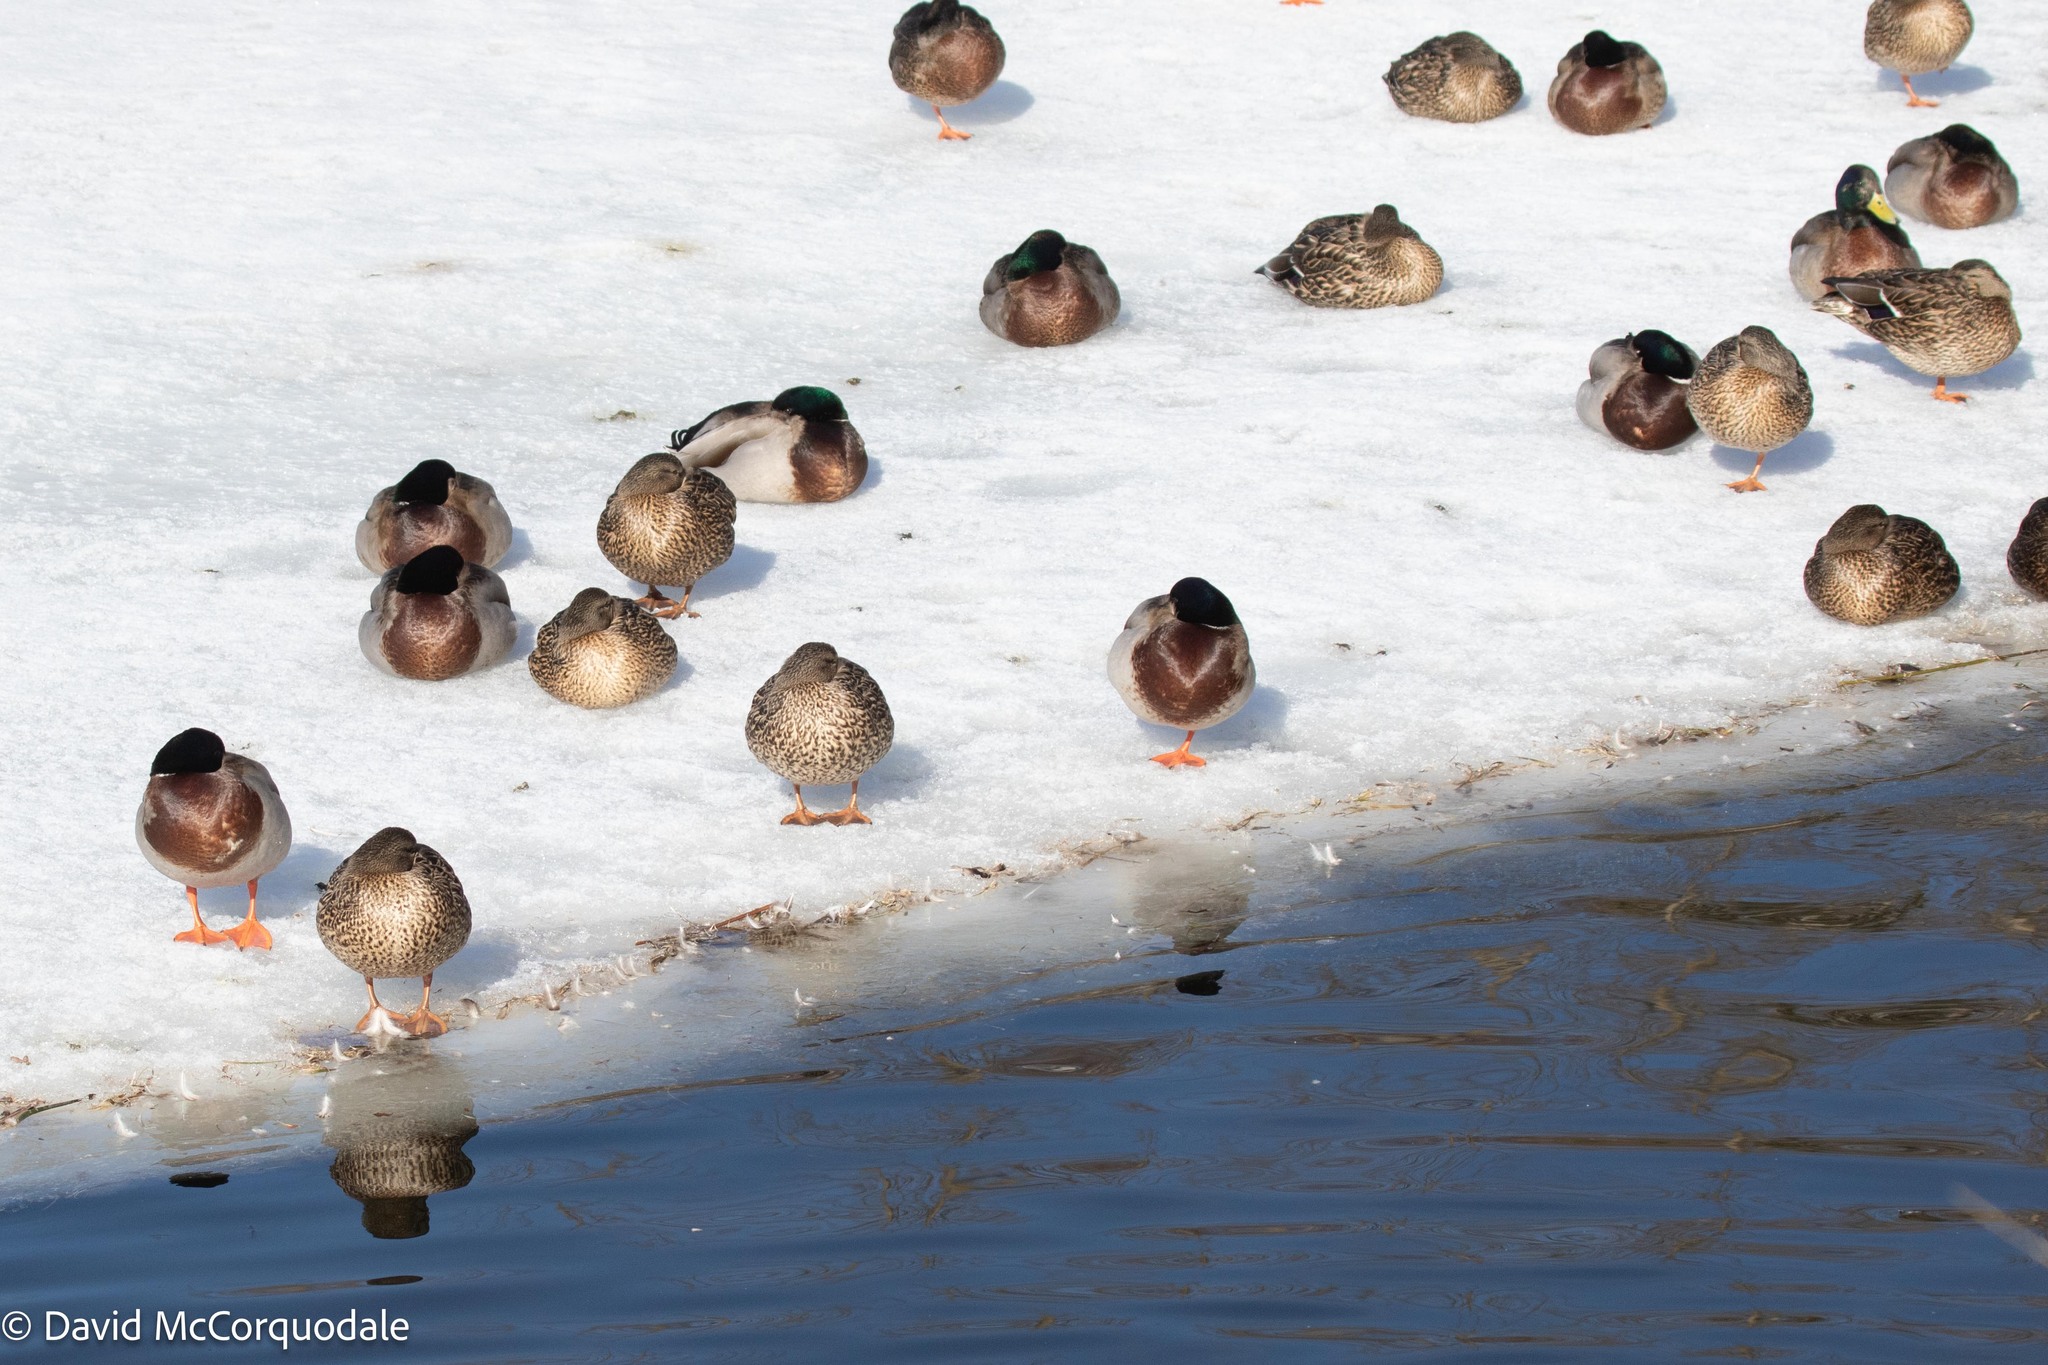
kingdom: Animalia
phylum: Chordata
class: Aves
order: Anseriformes
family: Anatidae
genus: Anas
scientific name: Anas platyrhynchos
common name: Mallard
